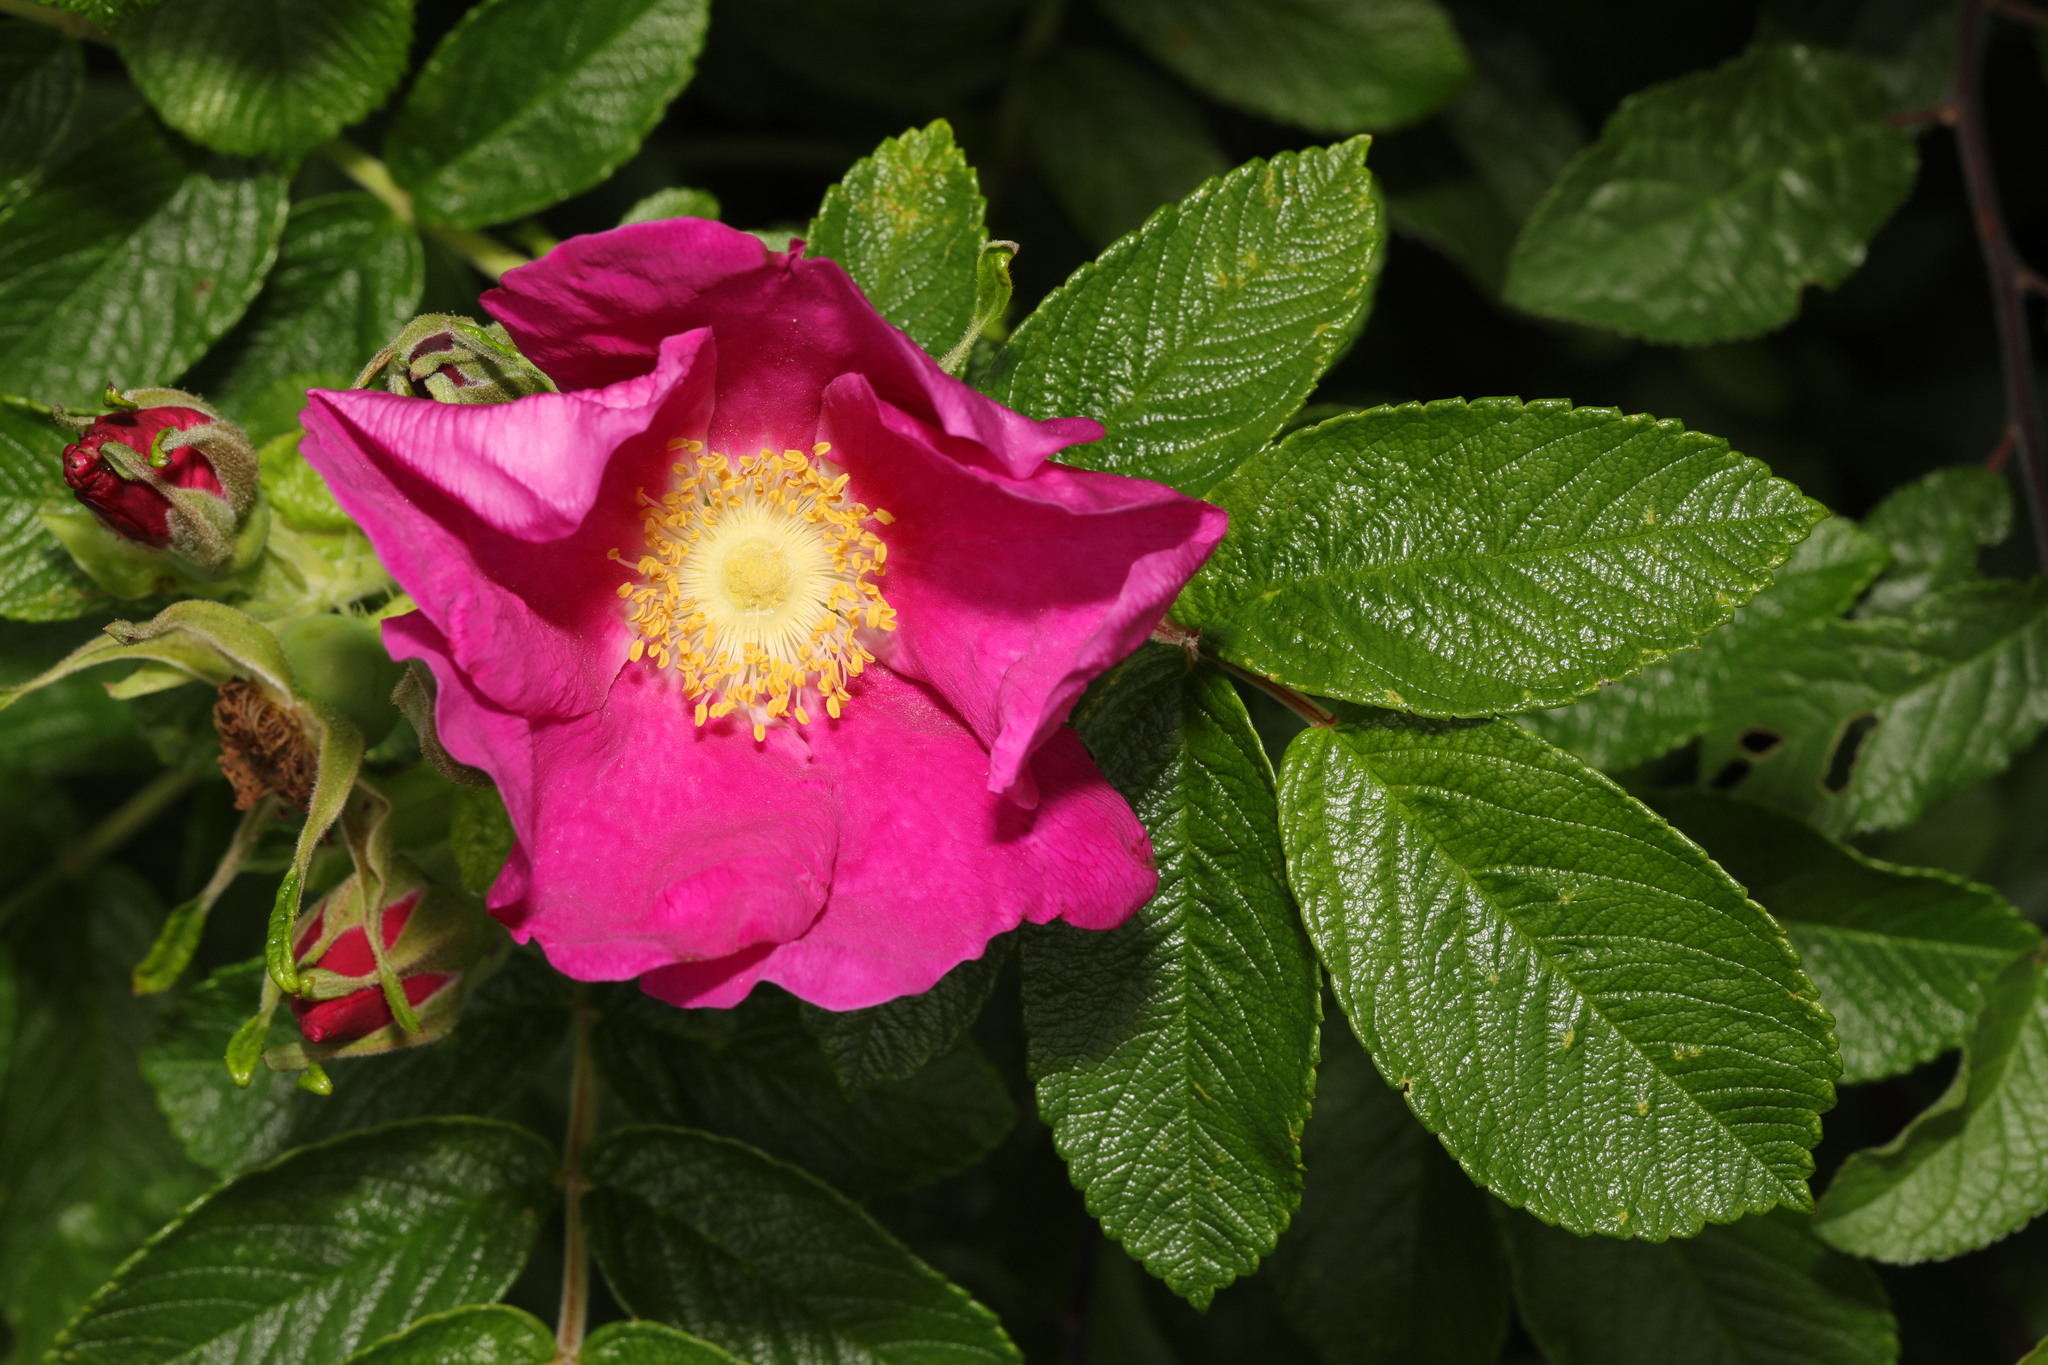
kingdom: Plantae
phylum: Tracheophyta
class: Magnoliopsida
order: Rosales
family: Rosaceae
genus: Rosa
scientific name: Rosa rugosa
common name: Japanese rose
